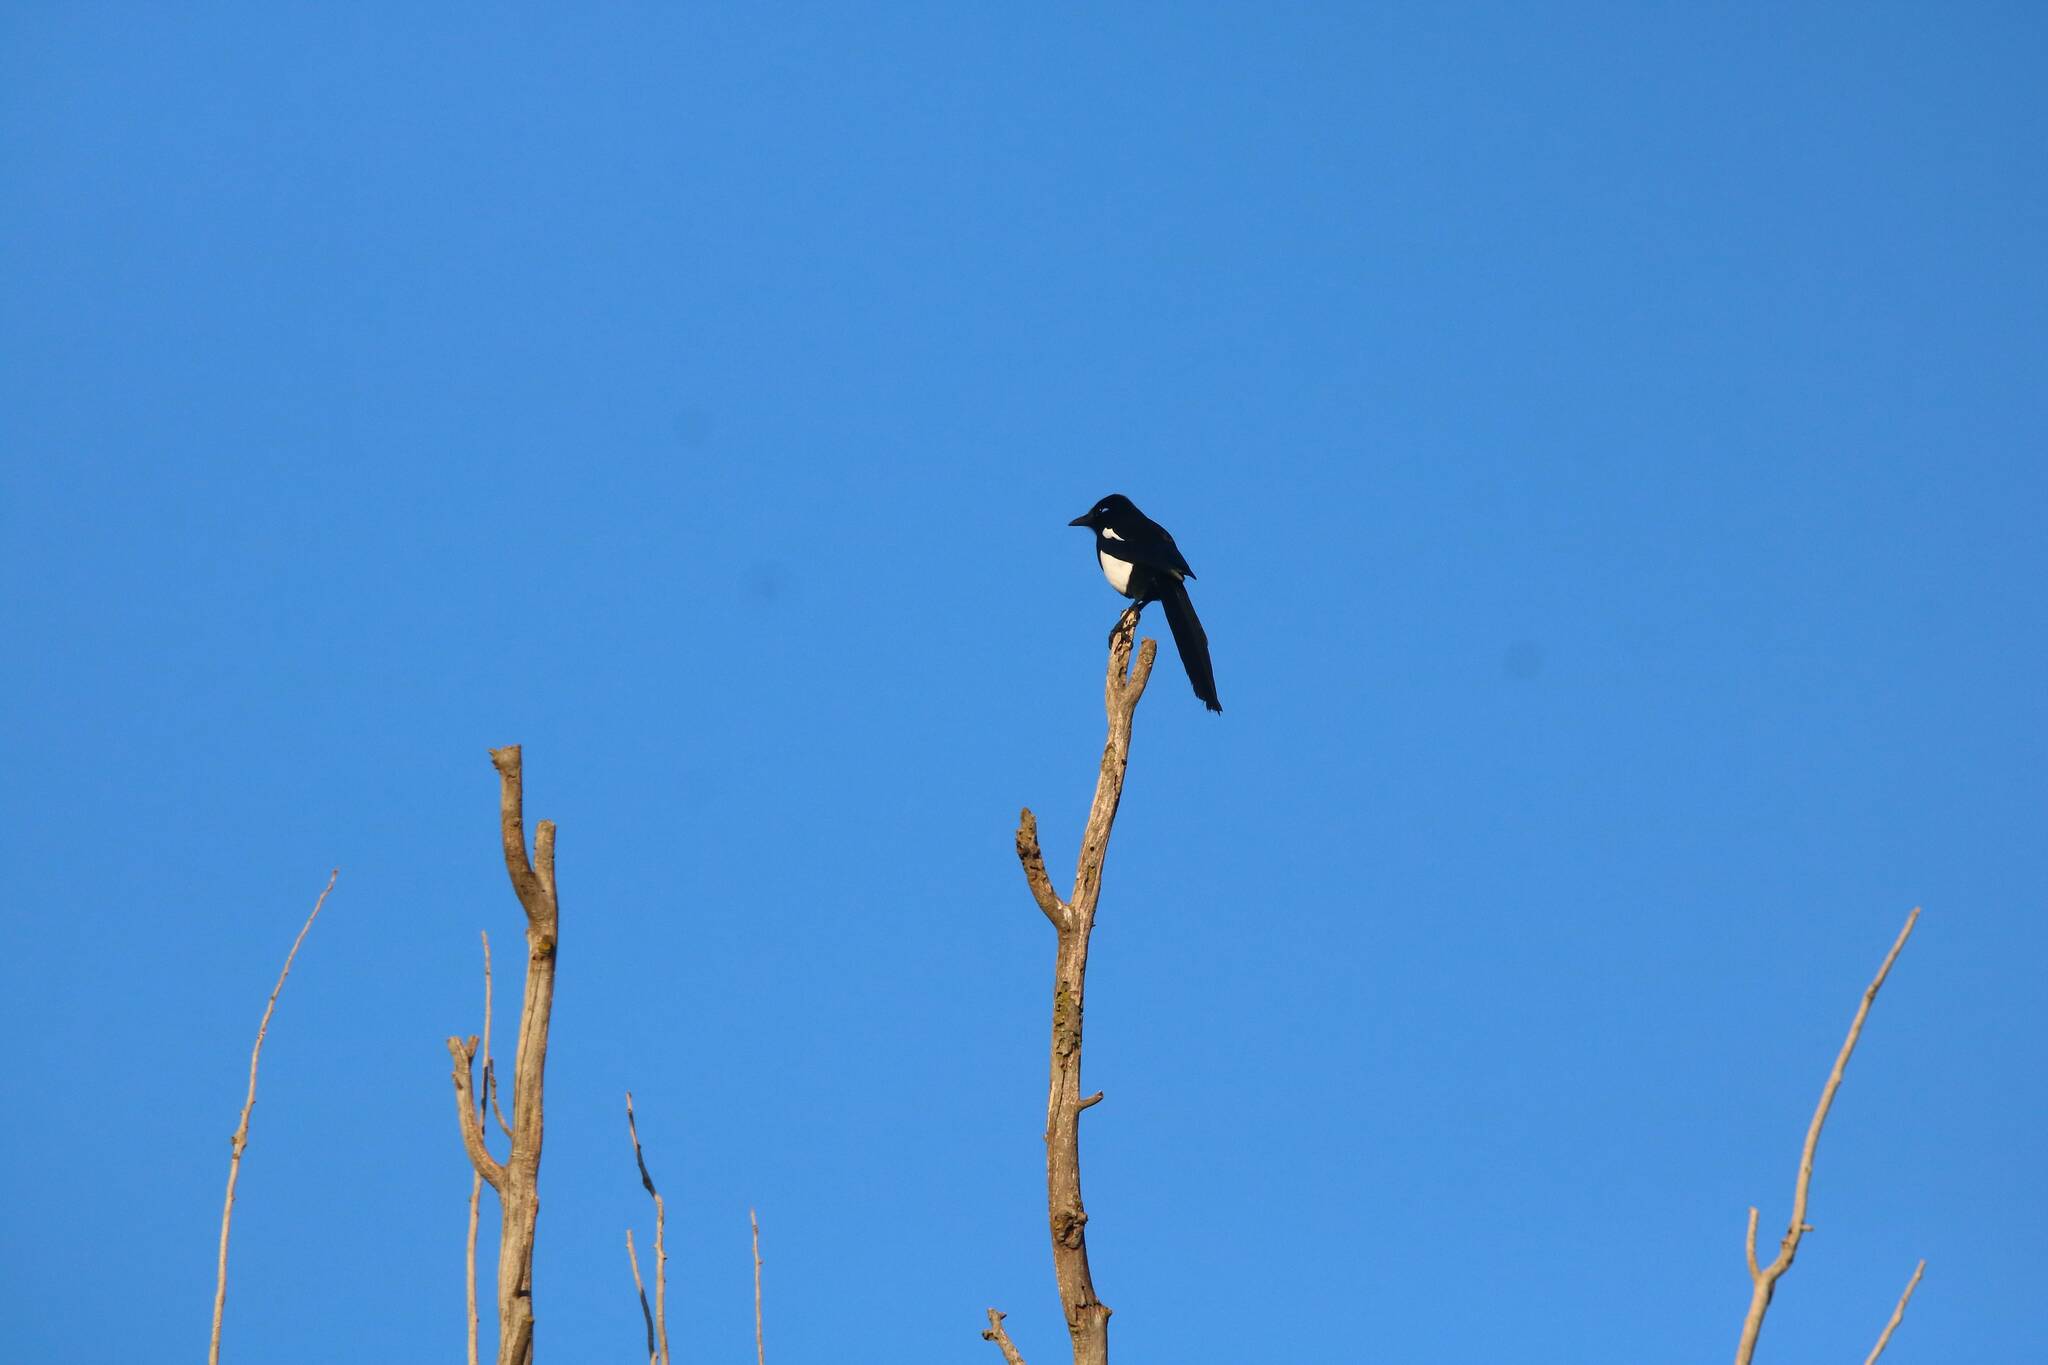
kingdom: Animalia
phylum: Chordata
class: Aves
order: Passeriformes
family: Corvidae
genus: Pica
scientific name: Pica mauritanica
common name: Maghreb magpie
